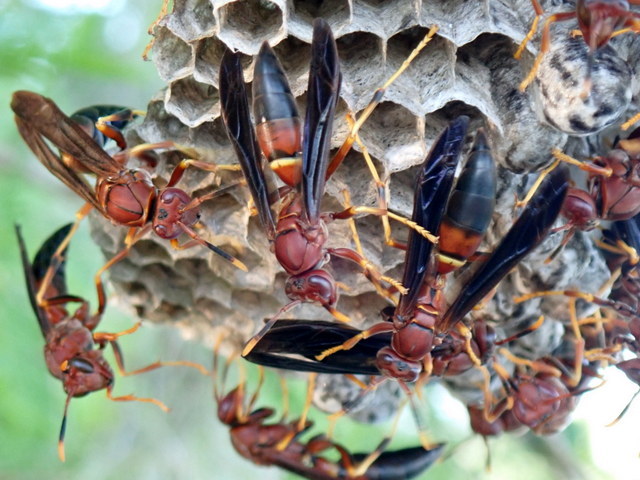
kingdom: Animalia
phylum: Arthropoda
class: Insecta
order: Hymenoptera
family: Eumenidae
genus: Polistes
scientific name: Polistes annularis
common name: Ringed paper wasp
